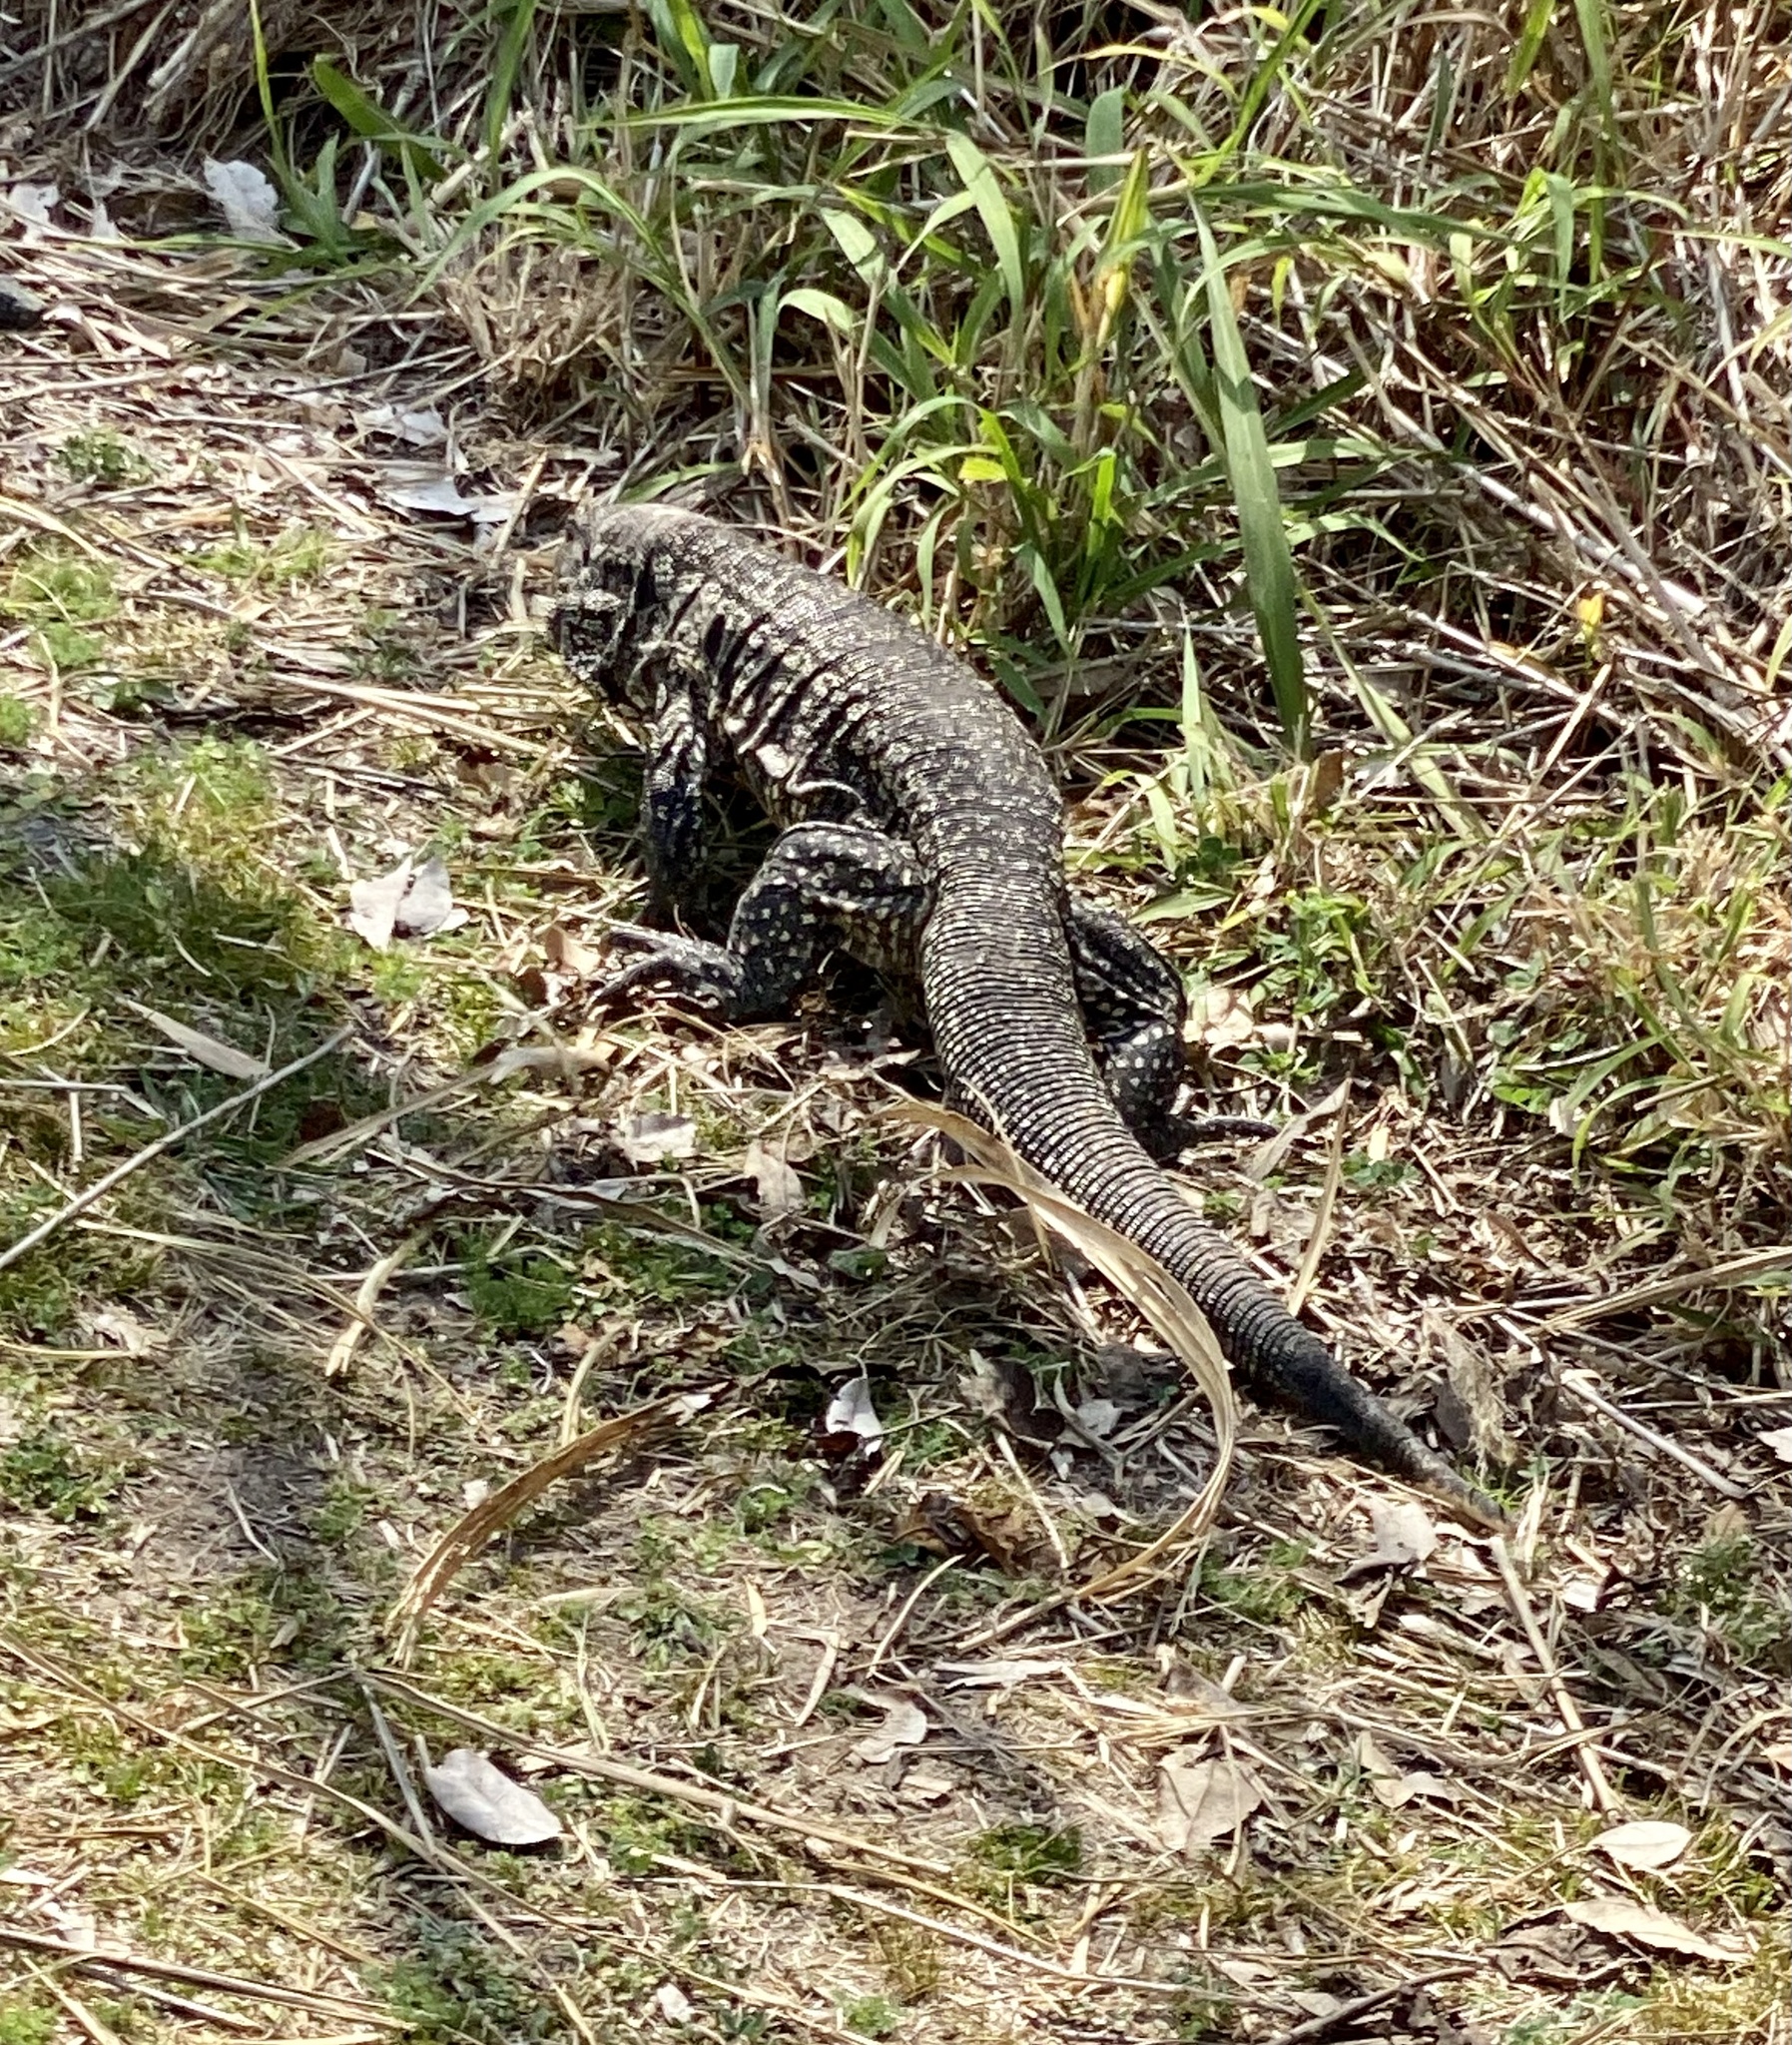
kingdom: Animalia
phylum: Chordata
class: Squamata
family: Teiidae
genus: Salvator
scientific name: Salvator merianae
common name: Argentine black and white tegu
